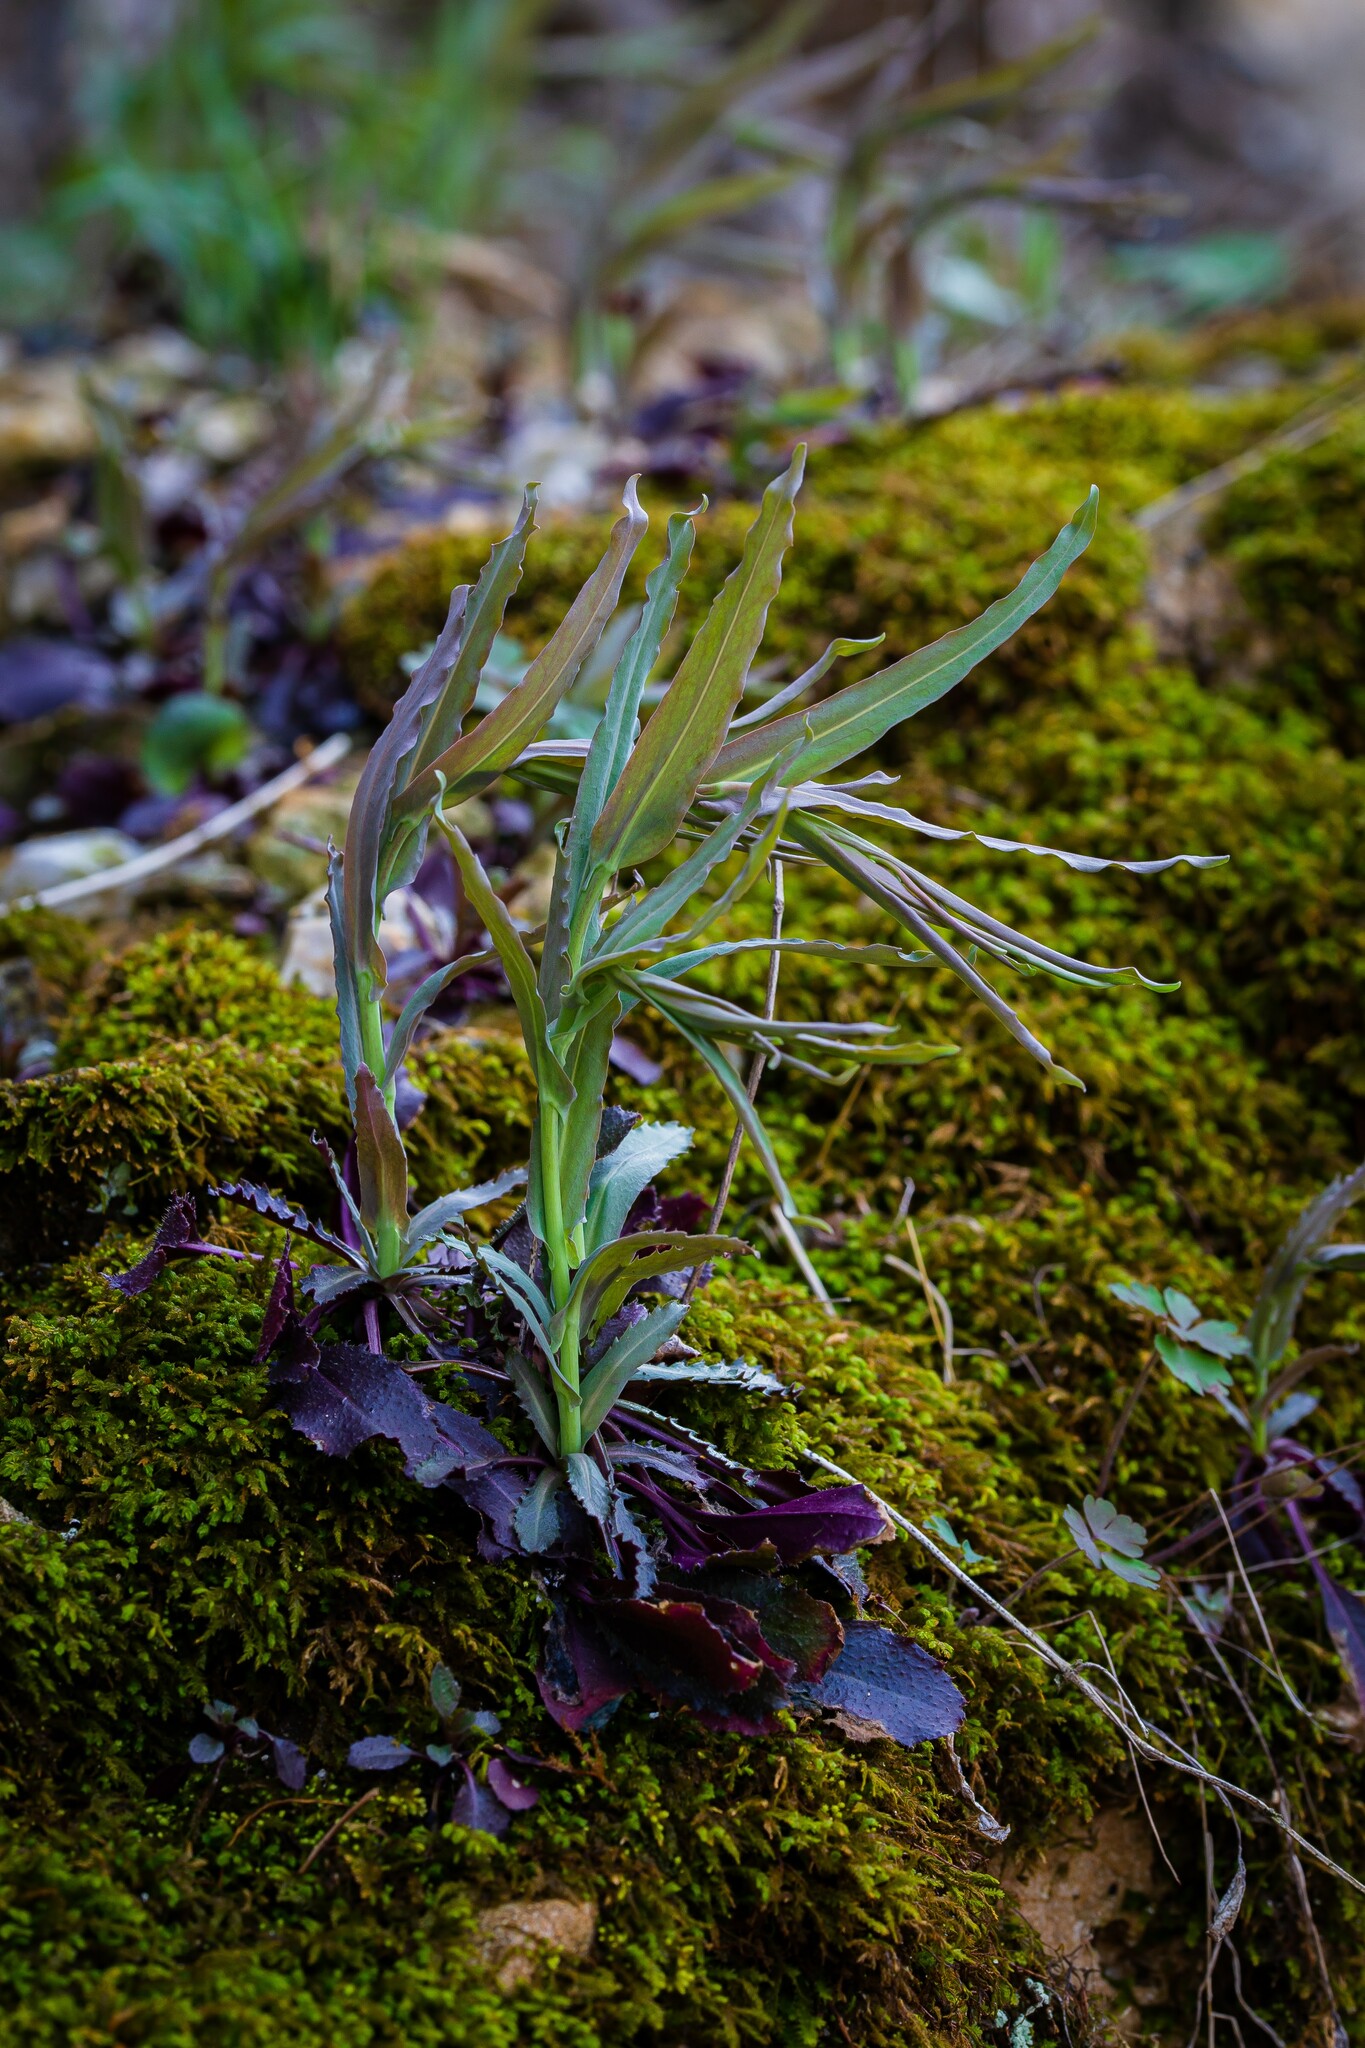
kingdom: Plantae
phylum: Tracheophyta
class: Magnoliopsida
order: Brassicales
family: Brassicaceae
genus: Borodinia
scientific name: Borodinia laevigata
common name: Smooth rockcress
